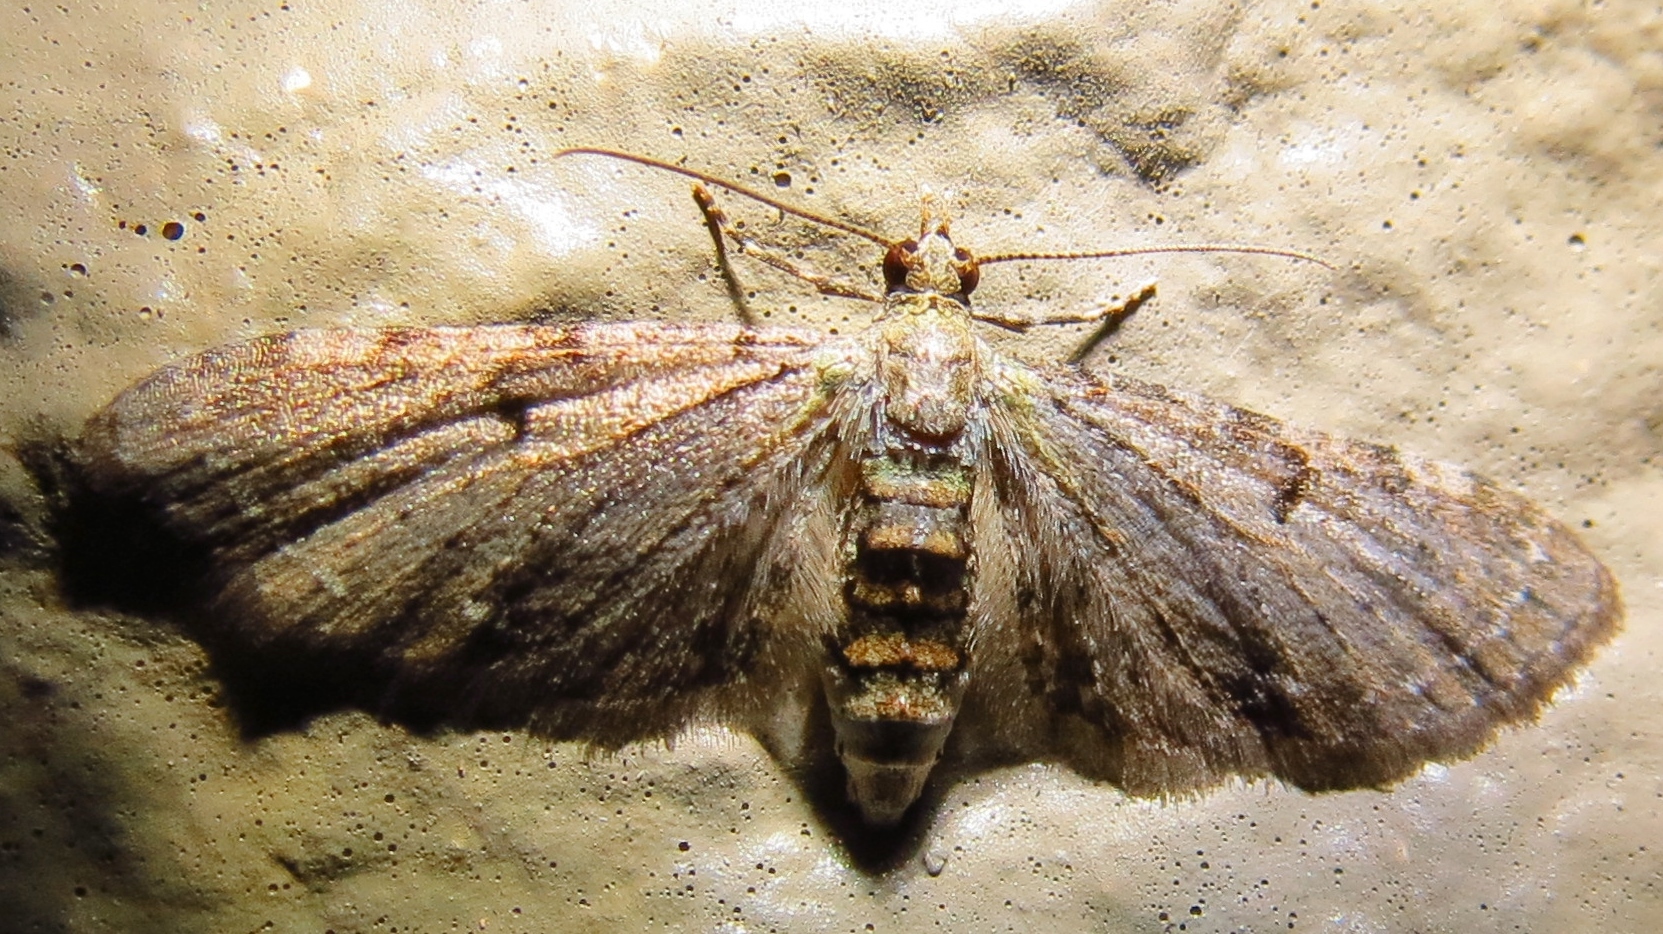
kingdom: Animalia
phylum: Arthropoda
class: Insecta
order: Lepidoptera
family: Geometridae
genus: Eupithecia
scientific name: Eupithecia miserulata
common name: Common eupithecia
